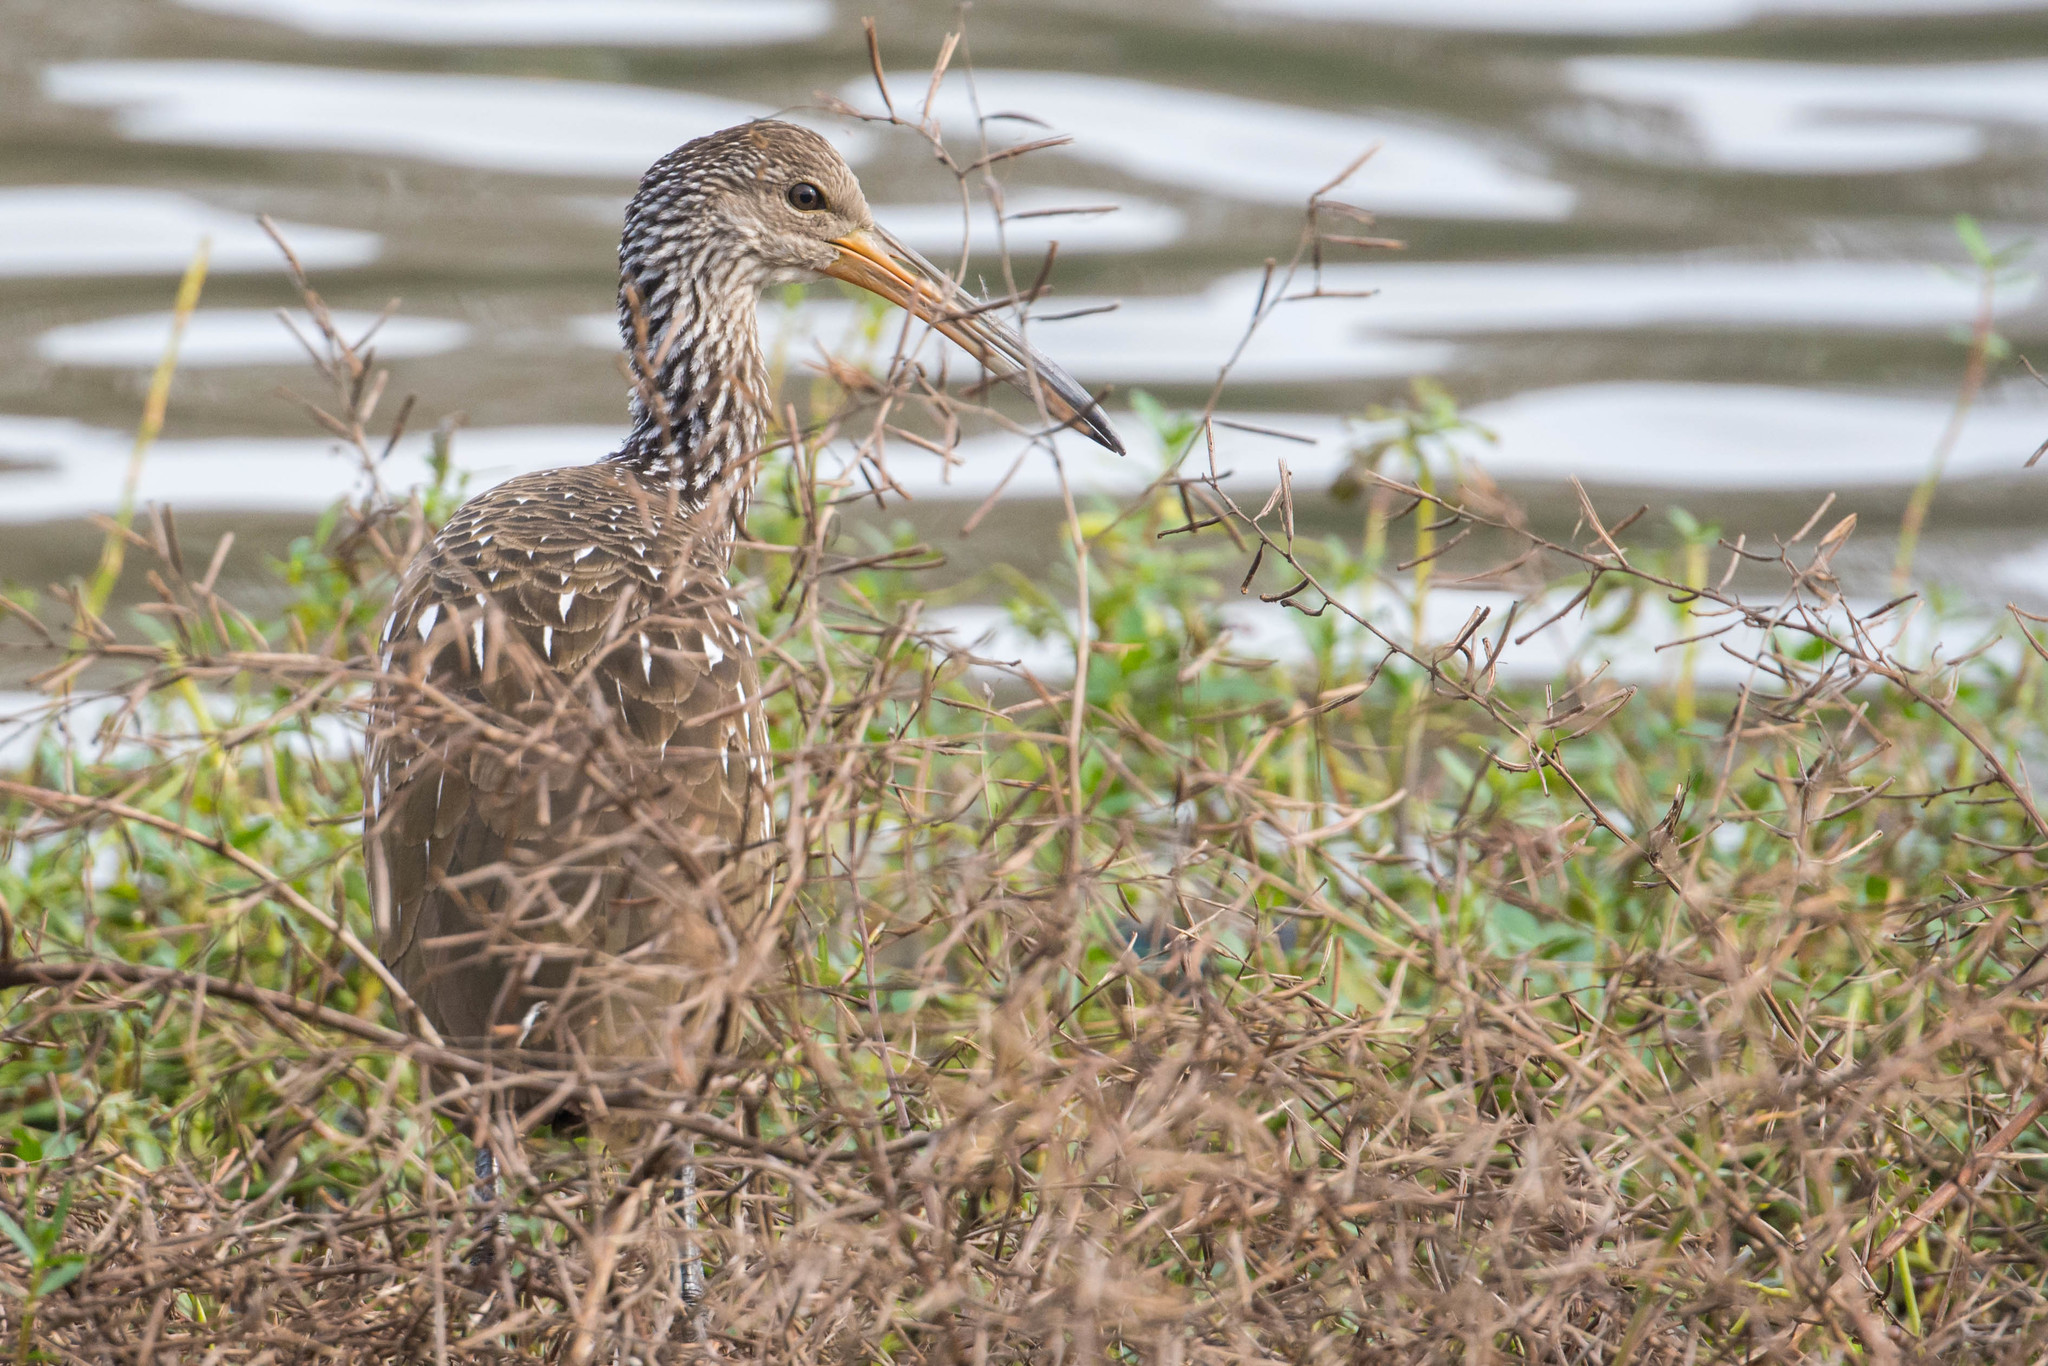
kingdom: Animalia
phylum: Chordata
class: Aves
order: Gruiformes
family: Aramidae
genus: Aramus
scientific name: Aramus guarauna
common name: Limpkin
